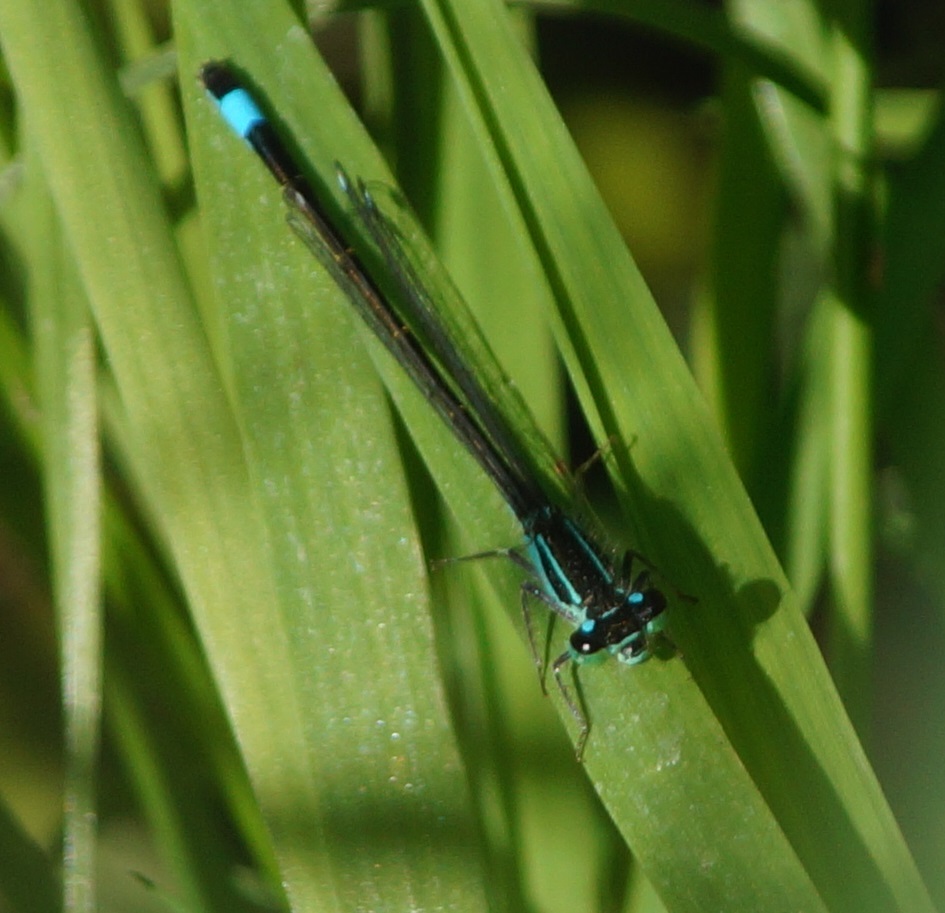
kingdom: Animalia
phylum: Arthropoda
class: Insecta
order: Odonata
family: Coenagrionidae
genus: Ischnura
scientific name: Ischnura elegans
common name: Blue-tailed damselfly
